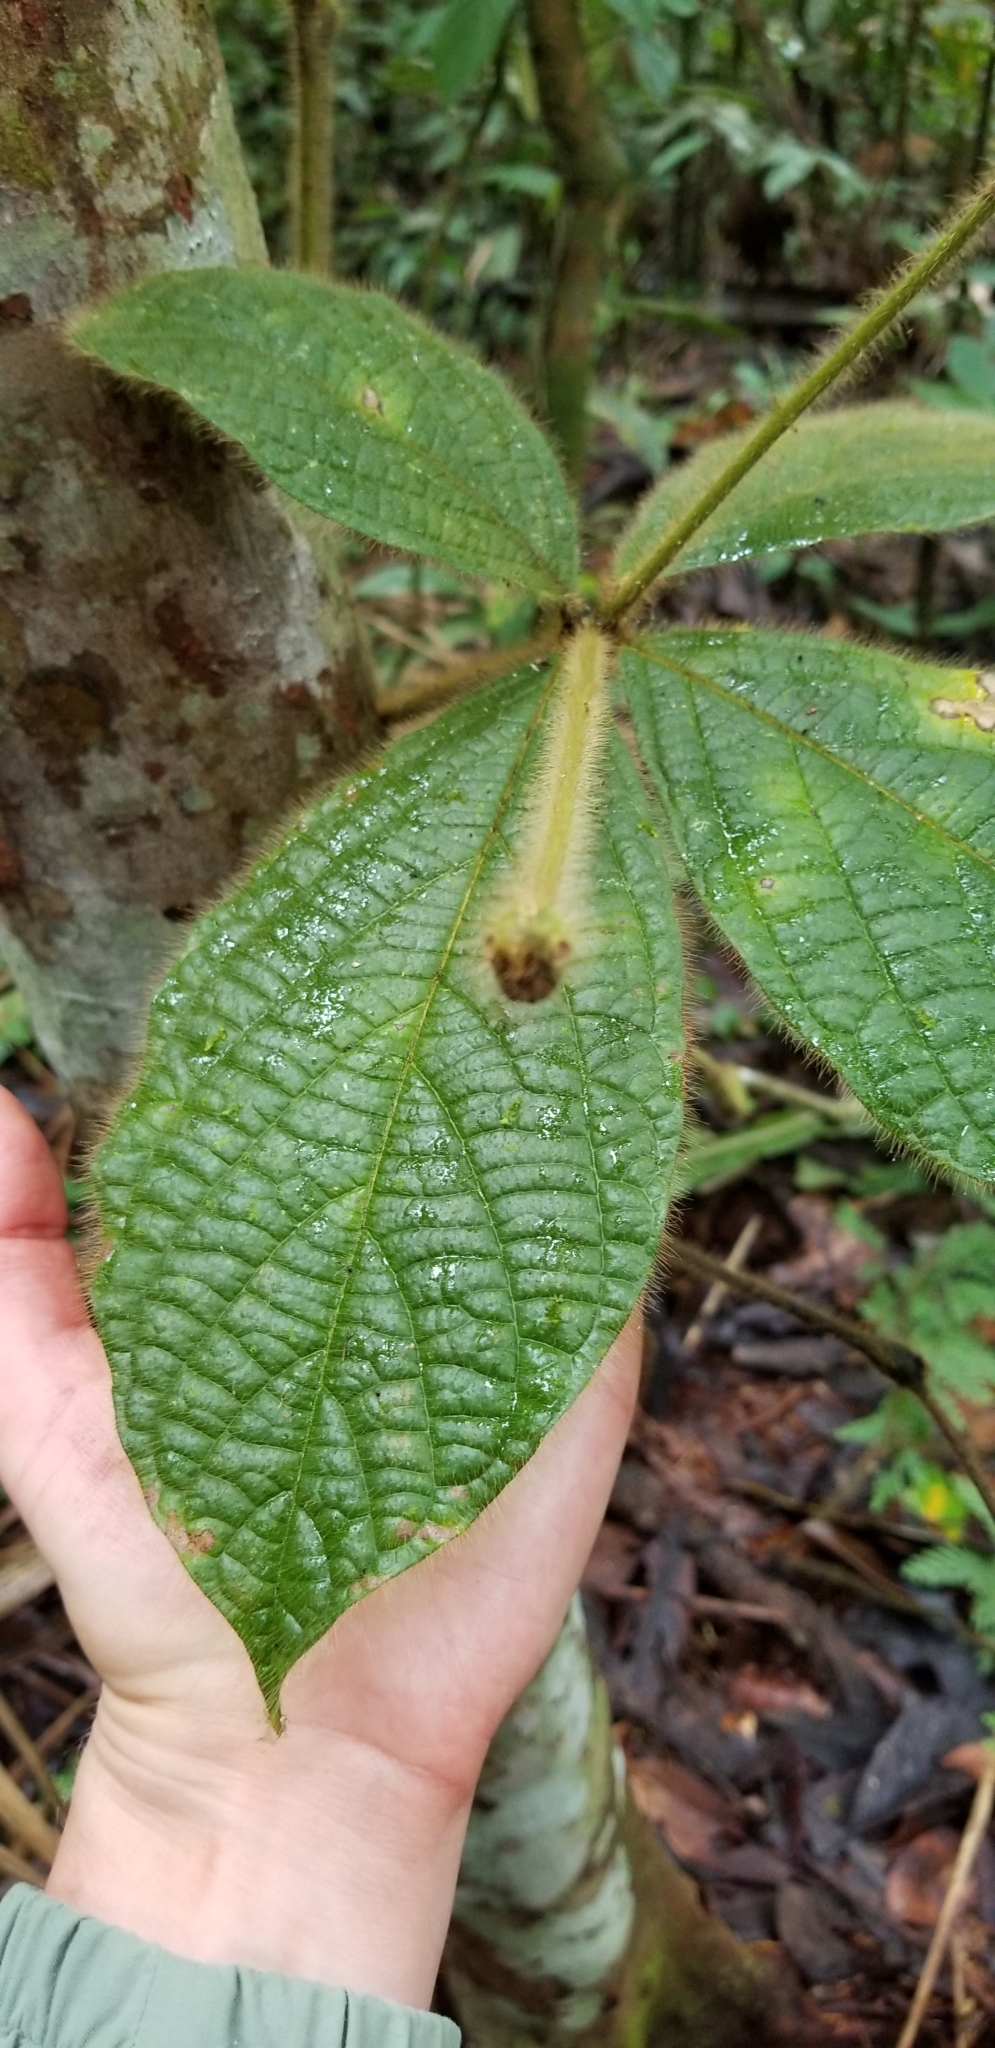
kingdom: Plantae
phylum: Tracheophyta
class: Magnoliopsida
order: Boraginales
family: Cordiaceae
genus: Cordia
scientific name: Cordia nodosa
